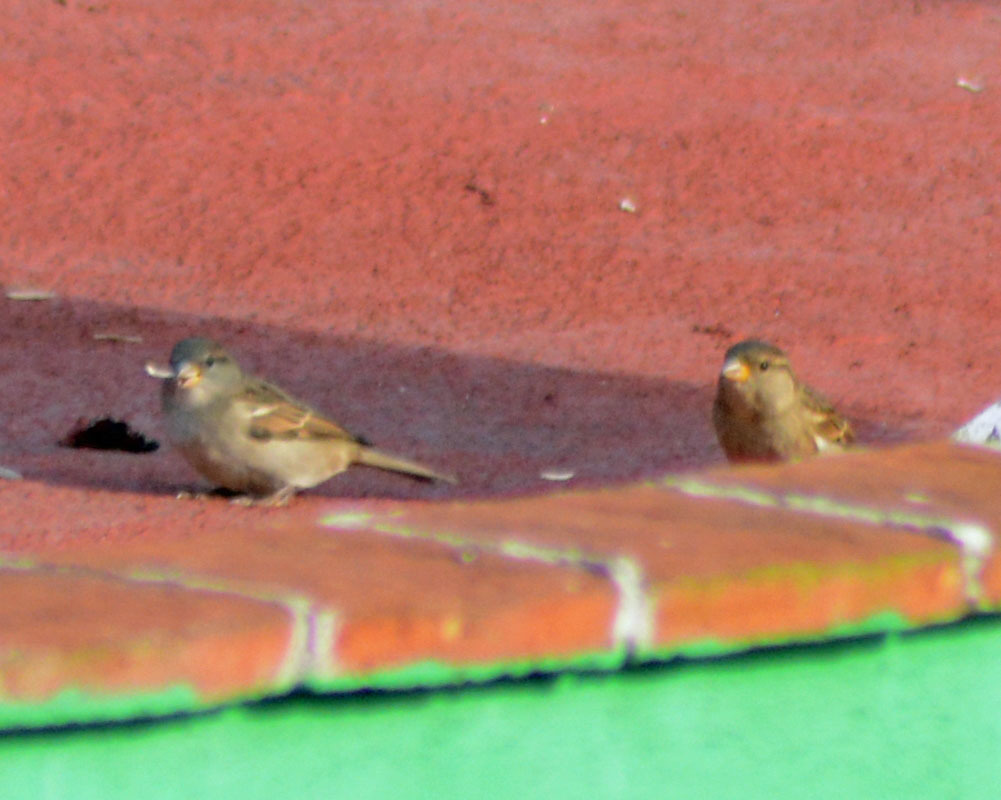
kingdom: Animalia
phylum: Chordata
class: Aves
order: Passeriformes
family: Passeridae
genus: Passer
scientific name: Passer domesticus
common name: House sparrow
